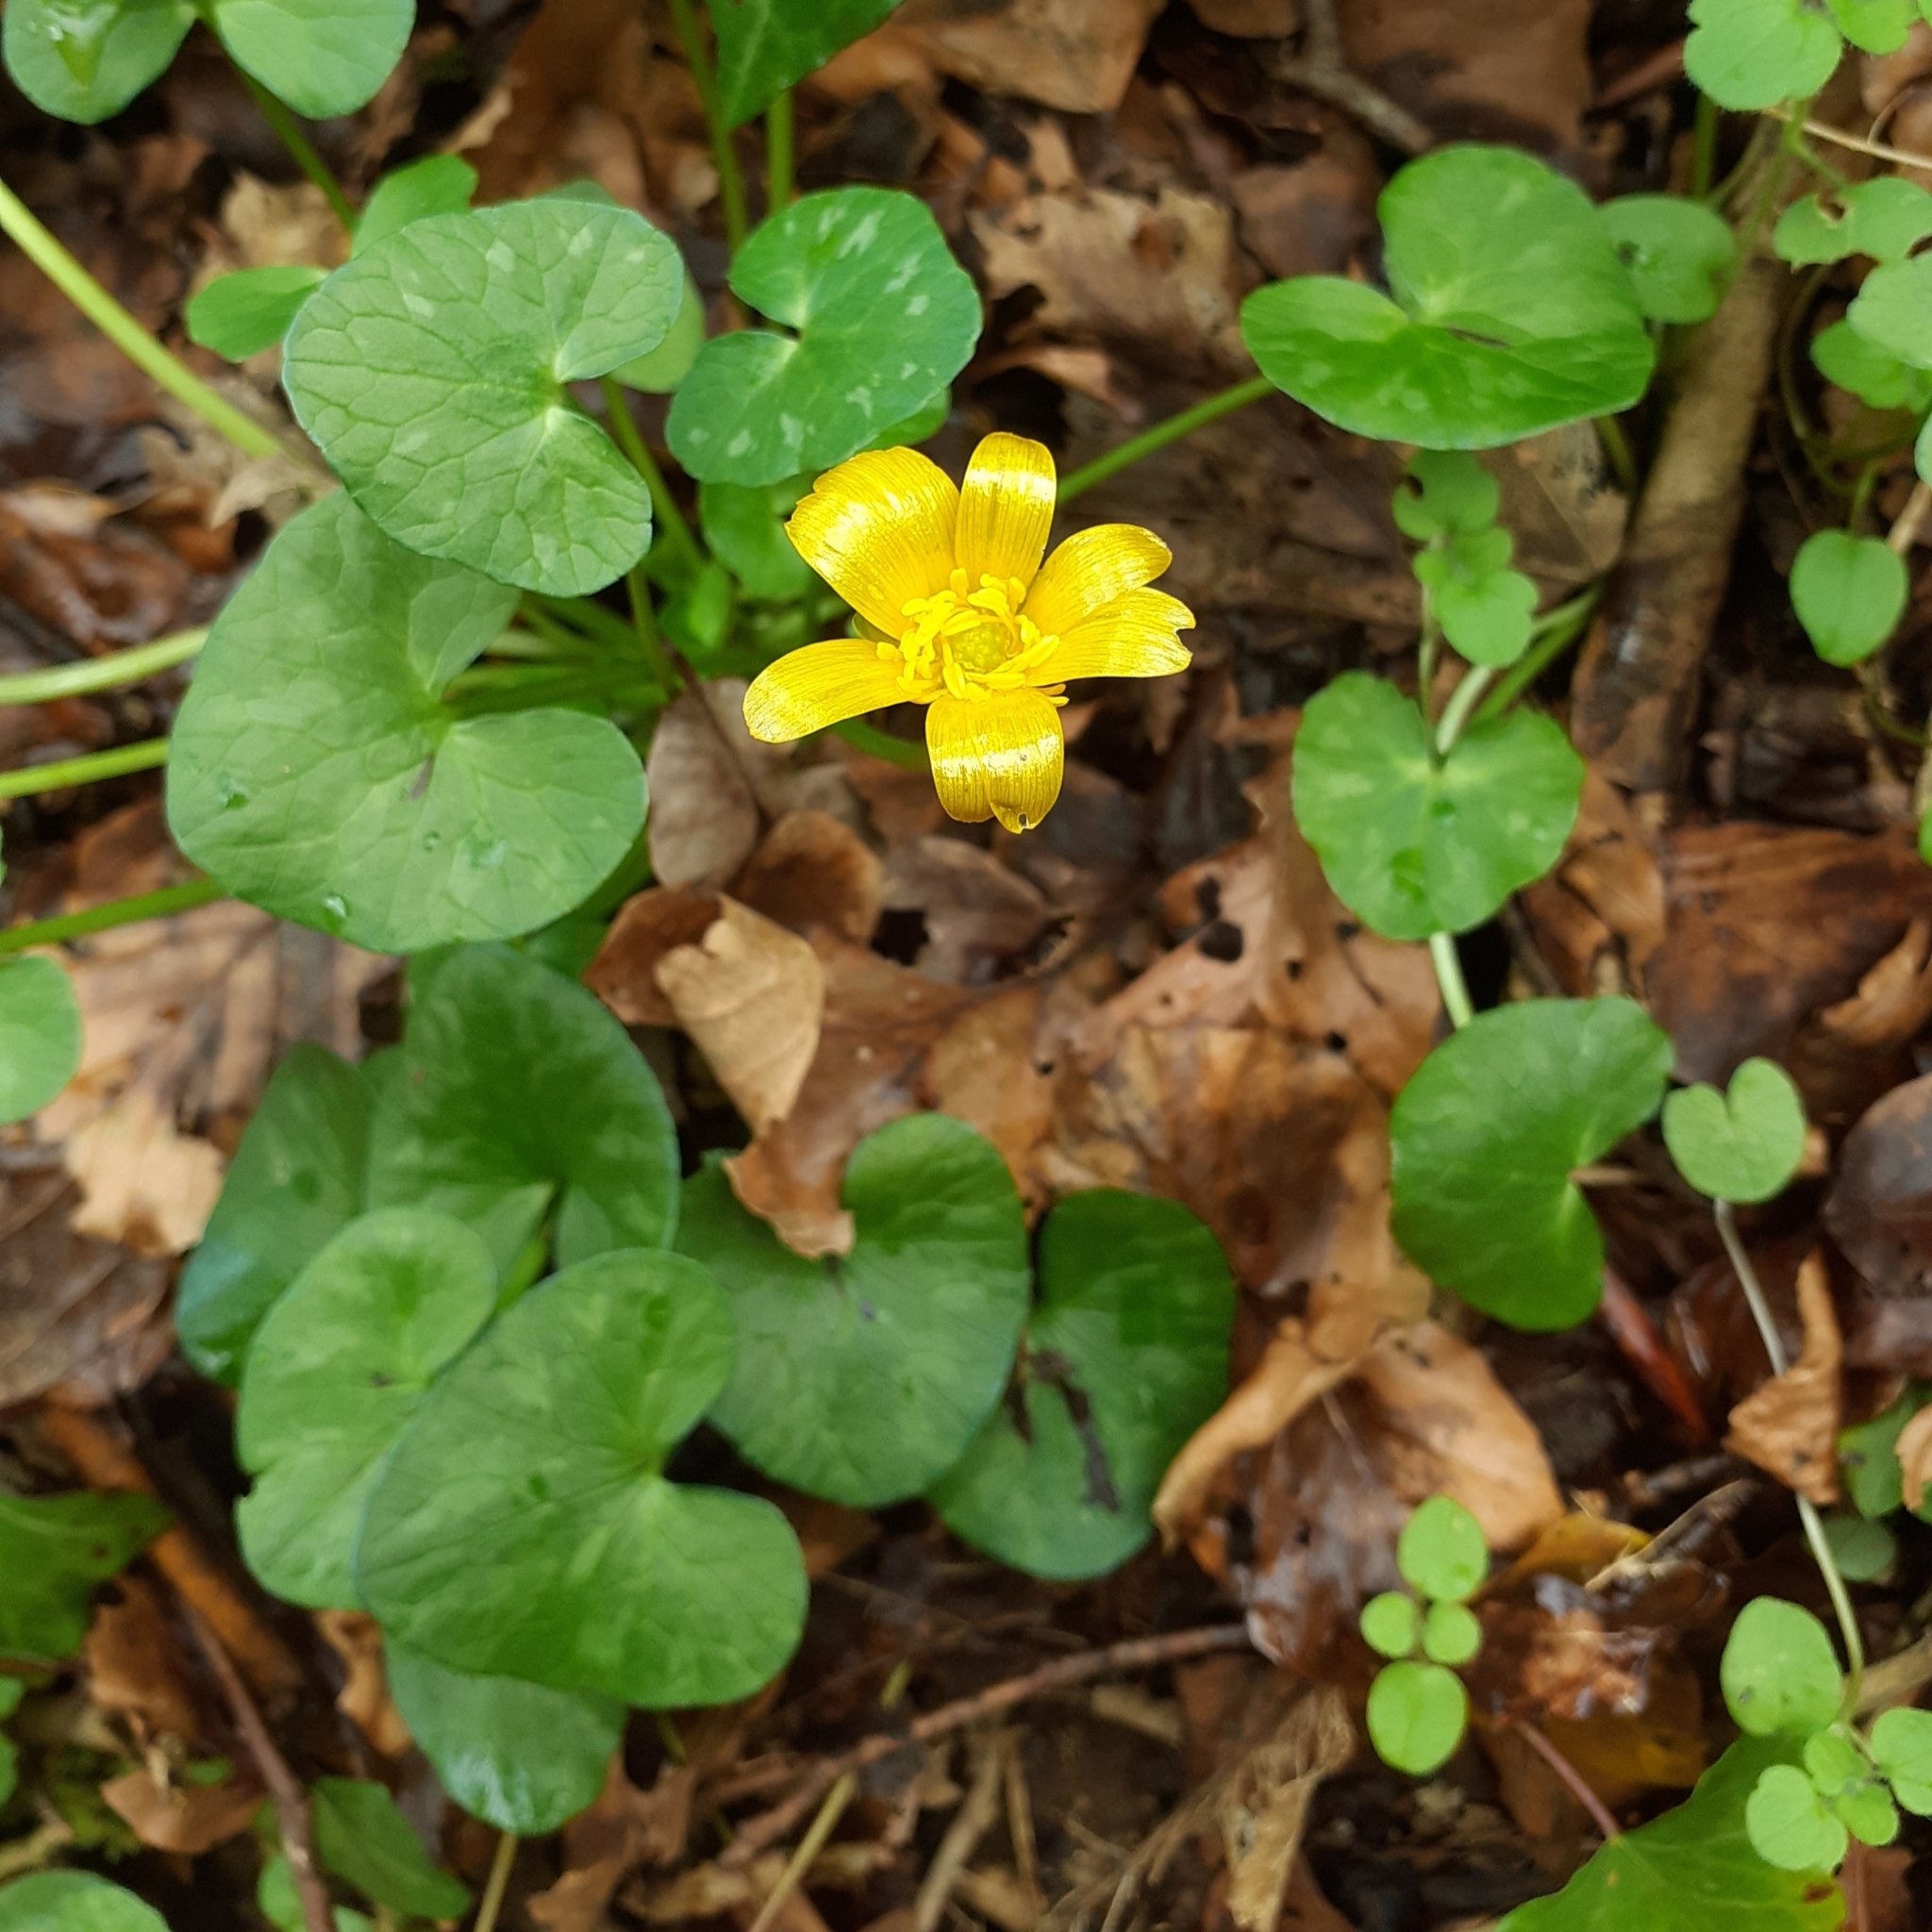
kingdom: Plantae
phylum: Tracheophyta
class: Magnoliopsida
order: Ranunculales
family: Ranunculaceae
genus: Ficaria
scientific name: Ficaria verna
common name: Lesser celandine
